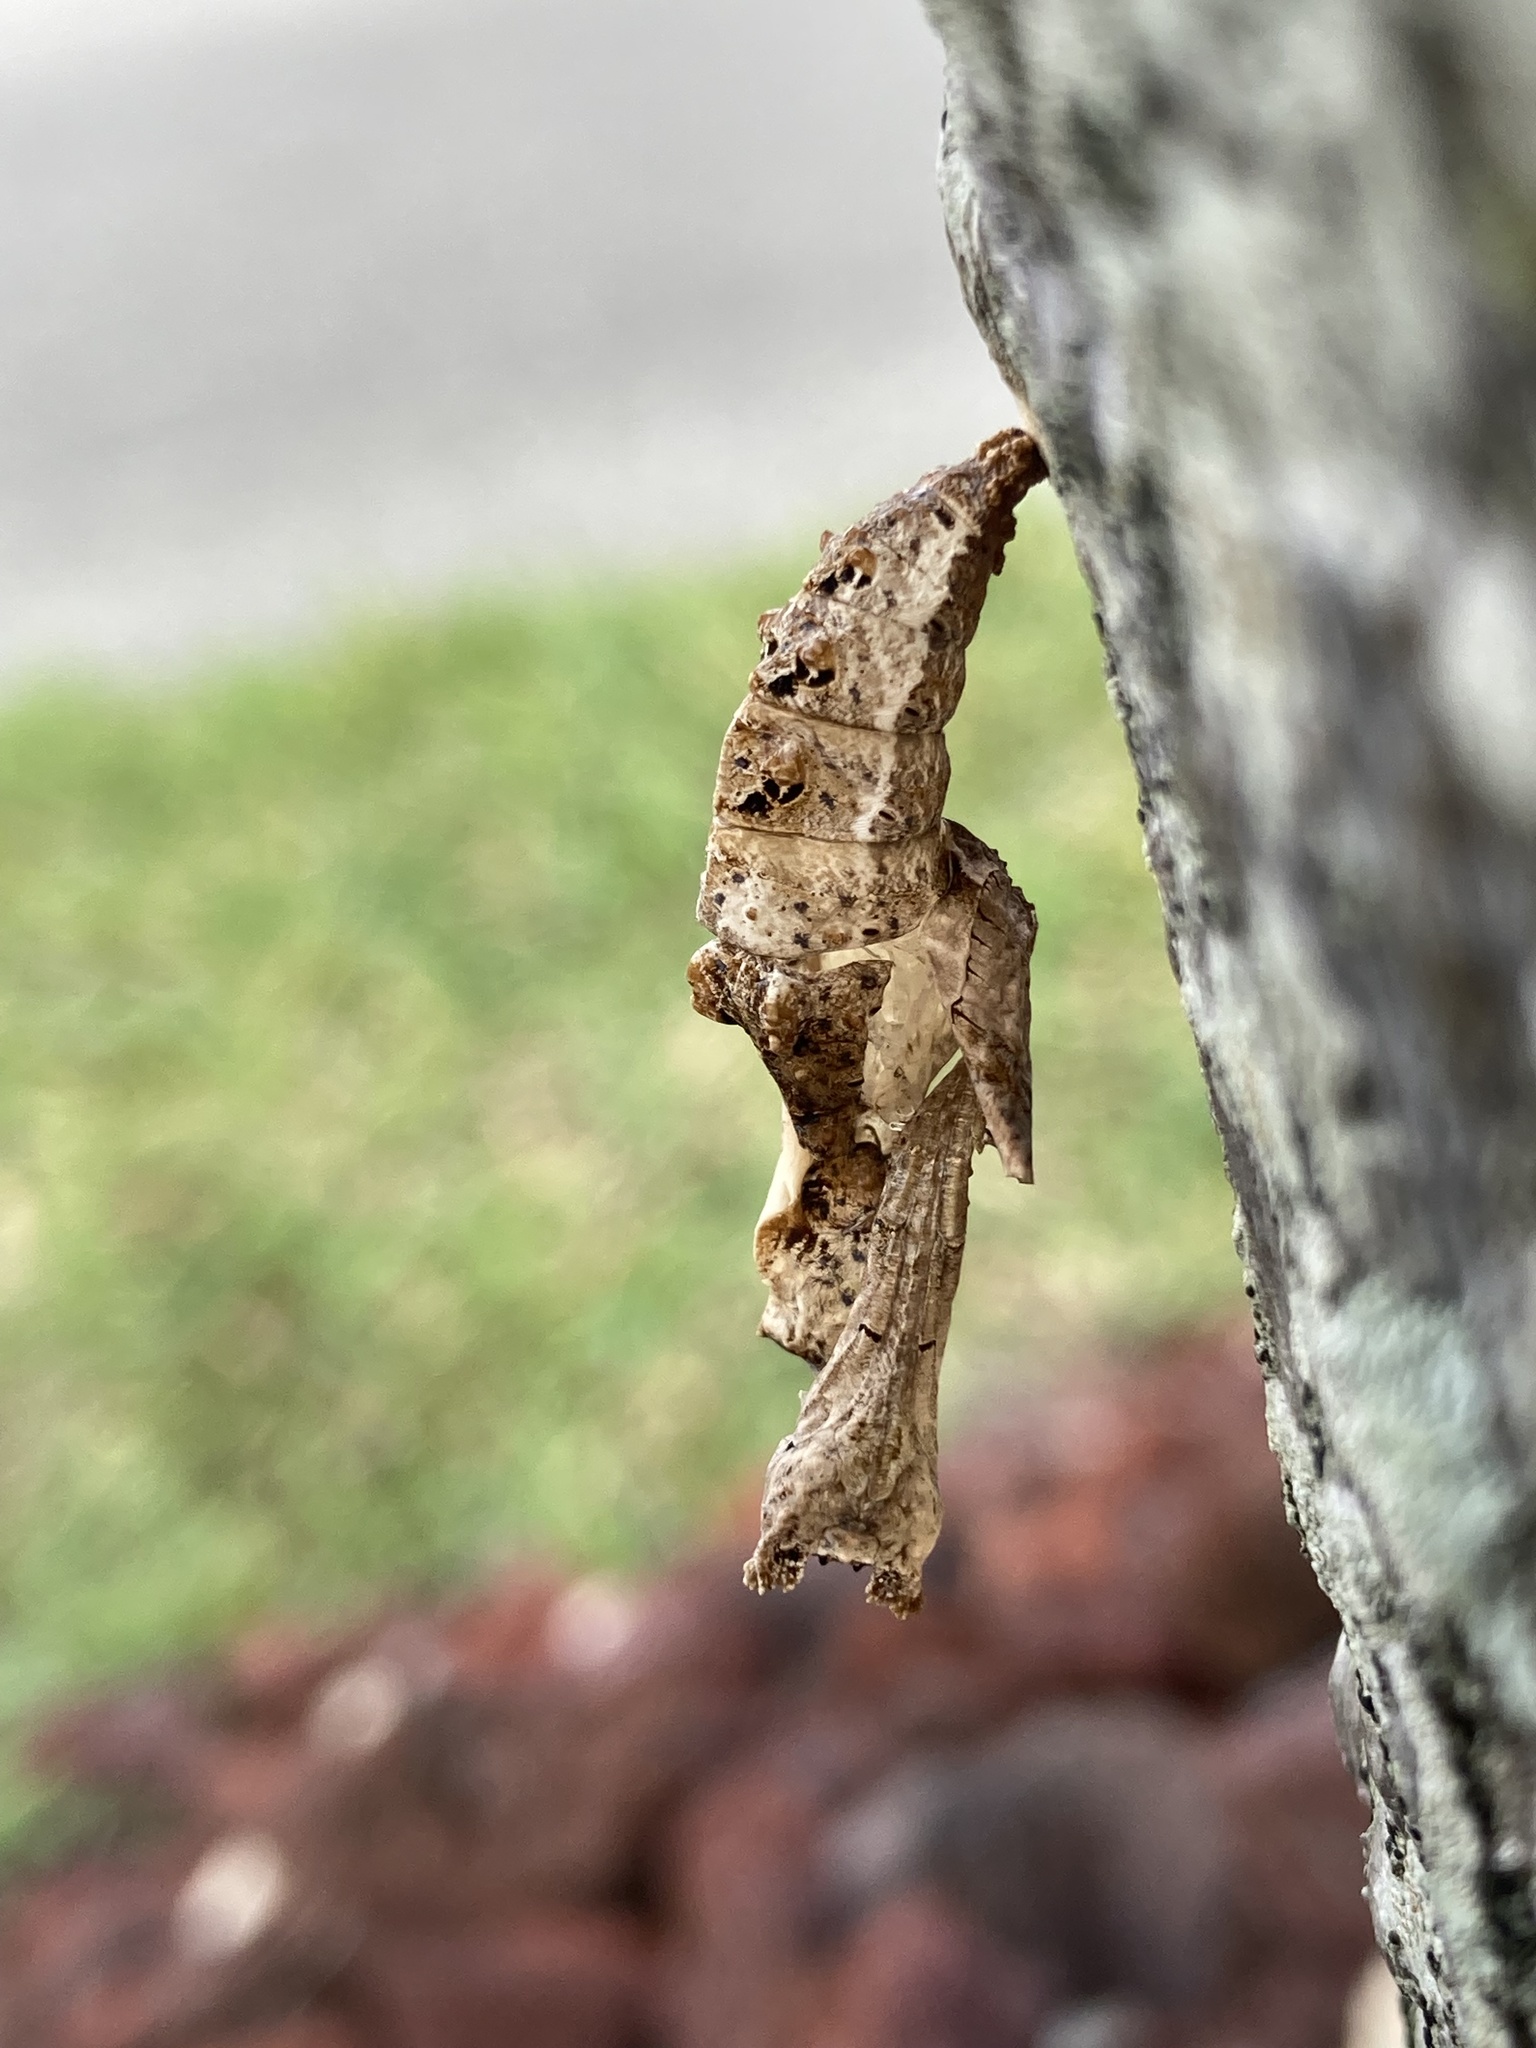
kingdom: Animalia
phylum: Arthropoda
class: Insecta
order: Lepidoptera
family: Nymphalidae
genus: Dione
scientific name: Dione vanillae
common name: Gulf fritillary
